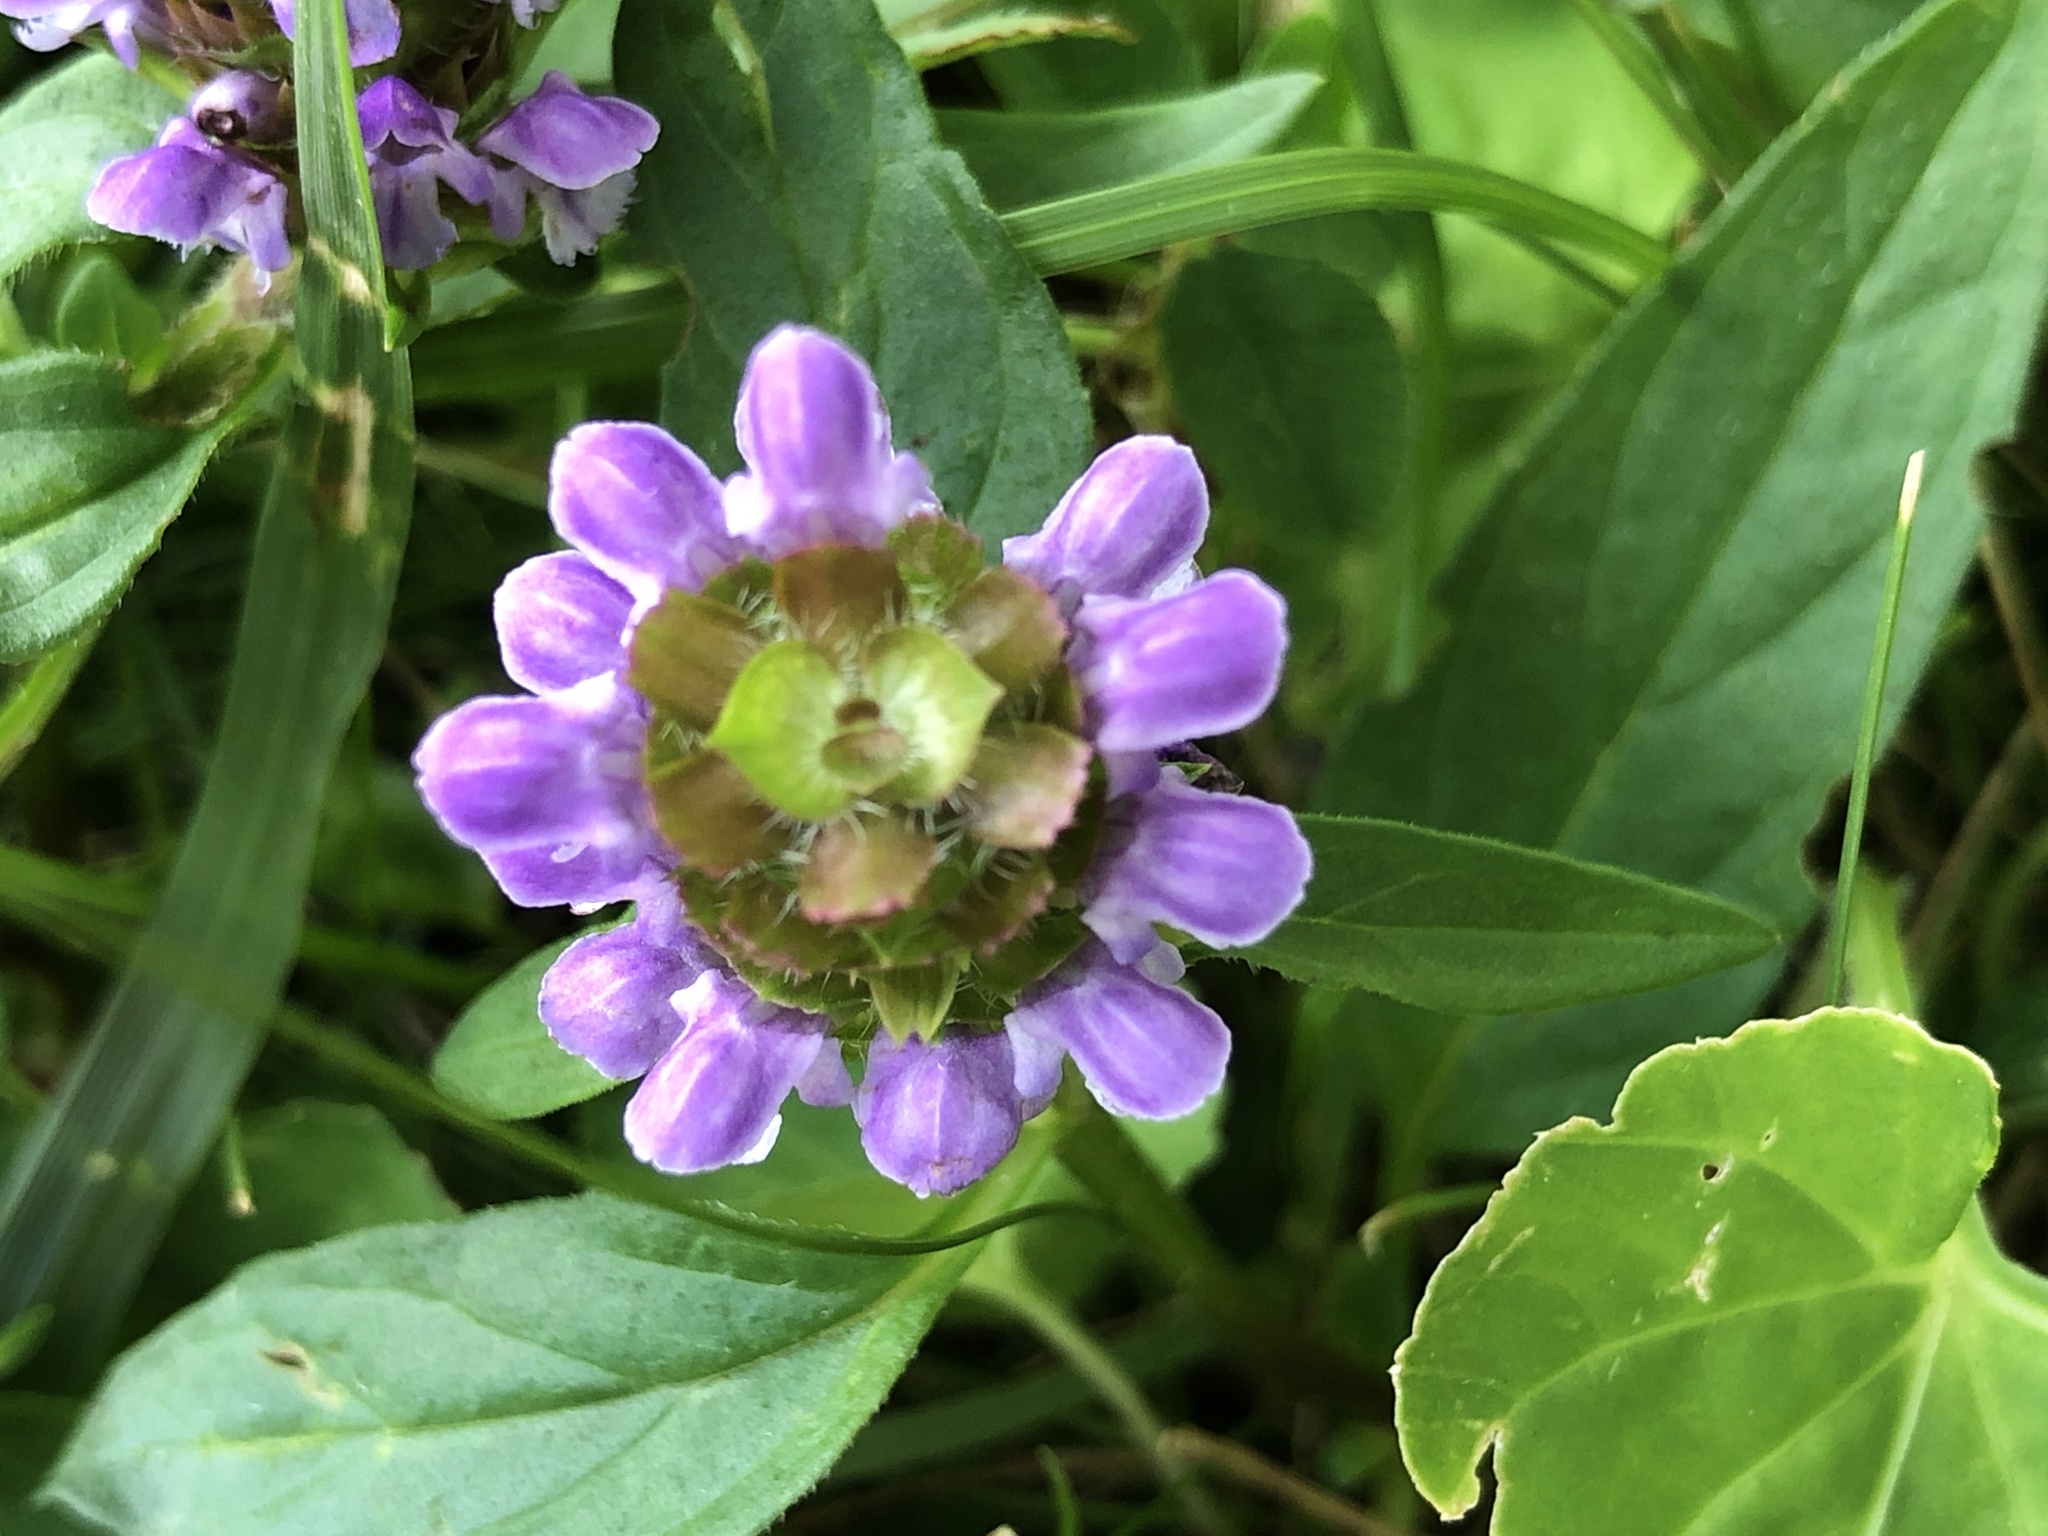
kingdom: Plantae
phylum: Tracheophyta
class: Magnoliopsida
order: Lamiales
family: Lamiaceae
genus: Prunella
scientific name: Prunella vulgaris
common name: Heal-all
